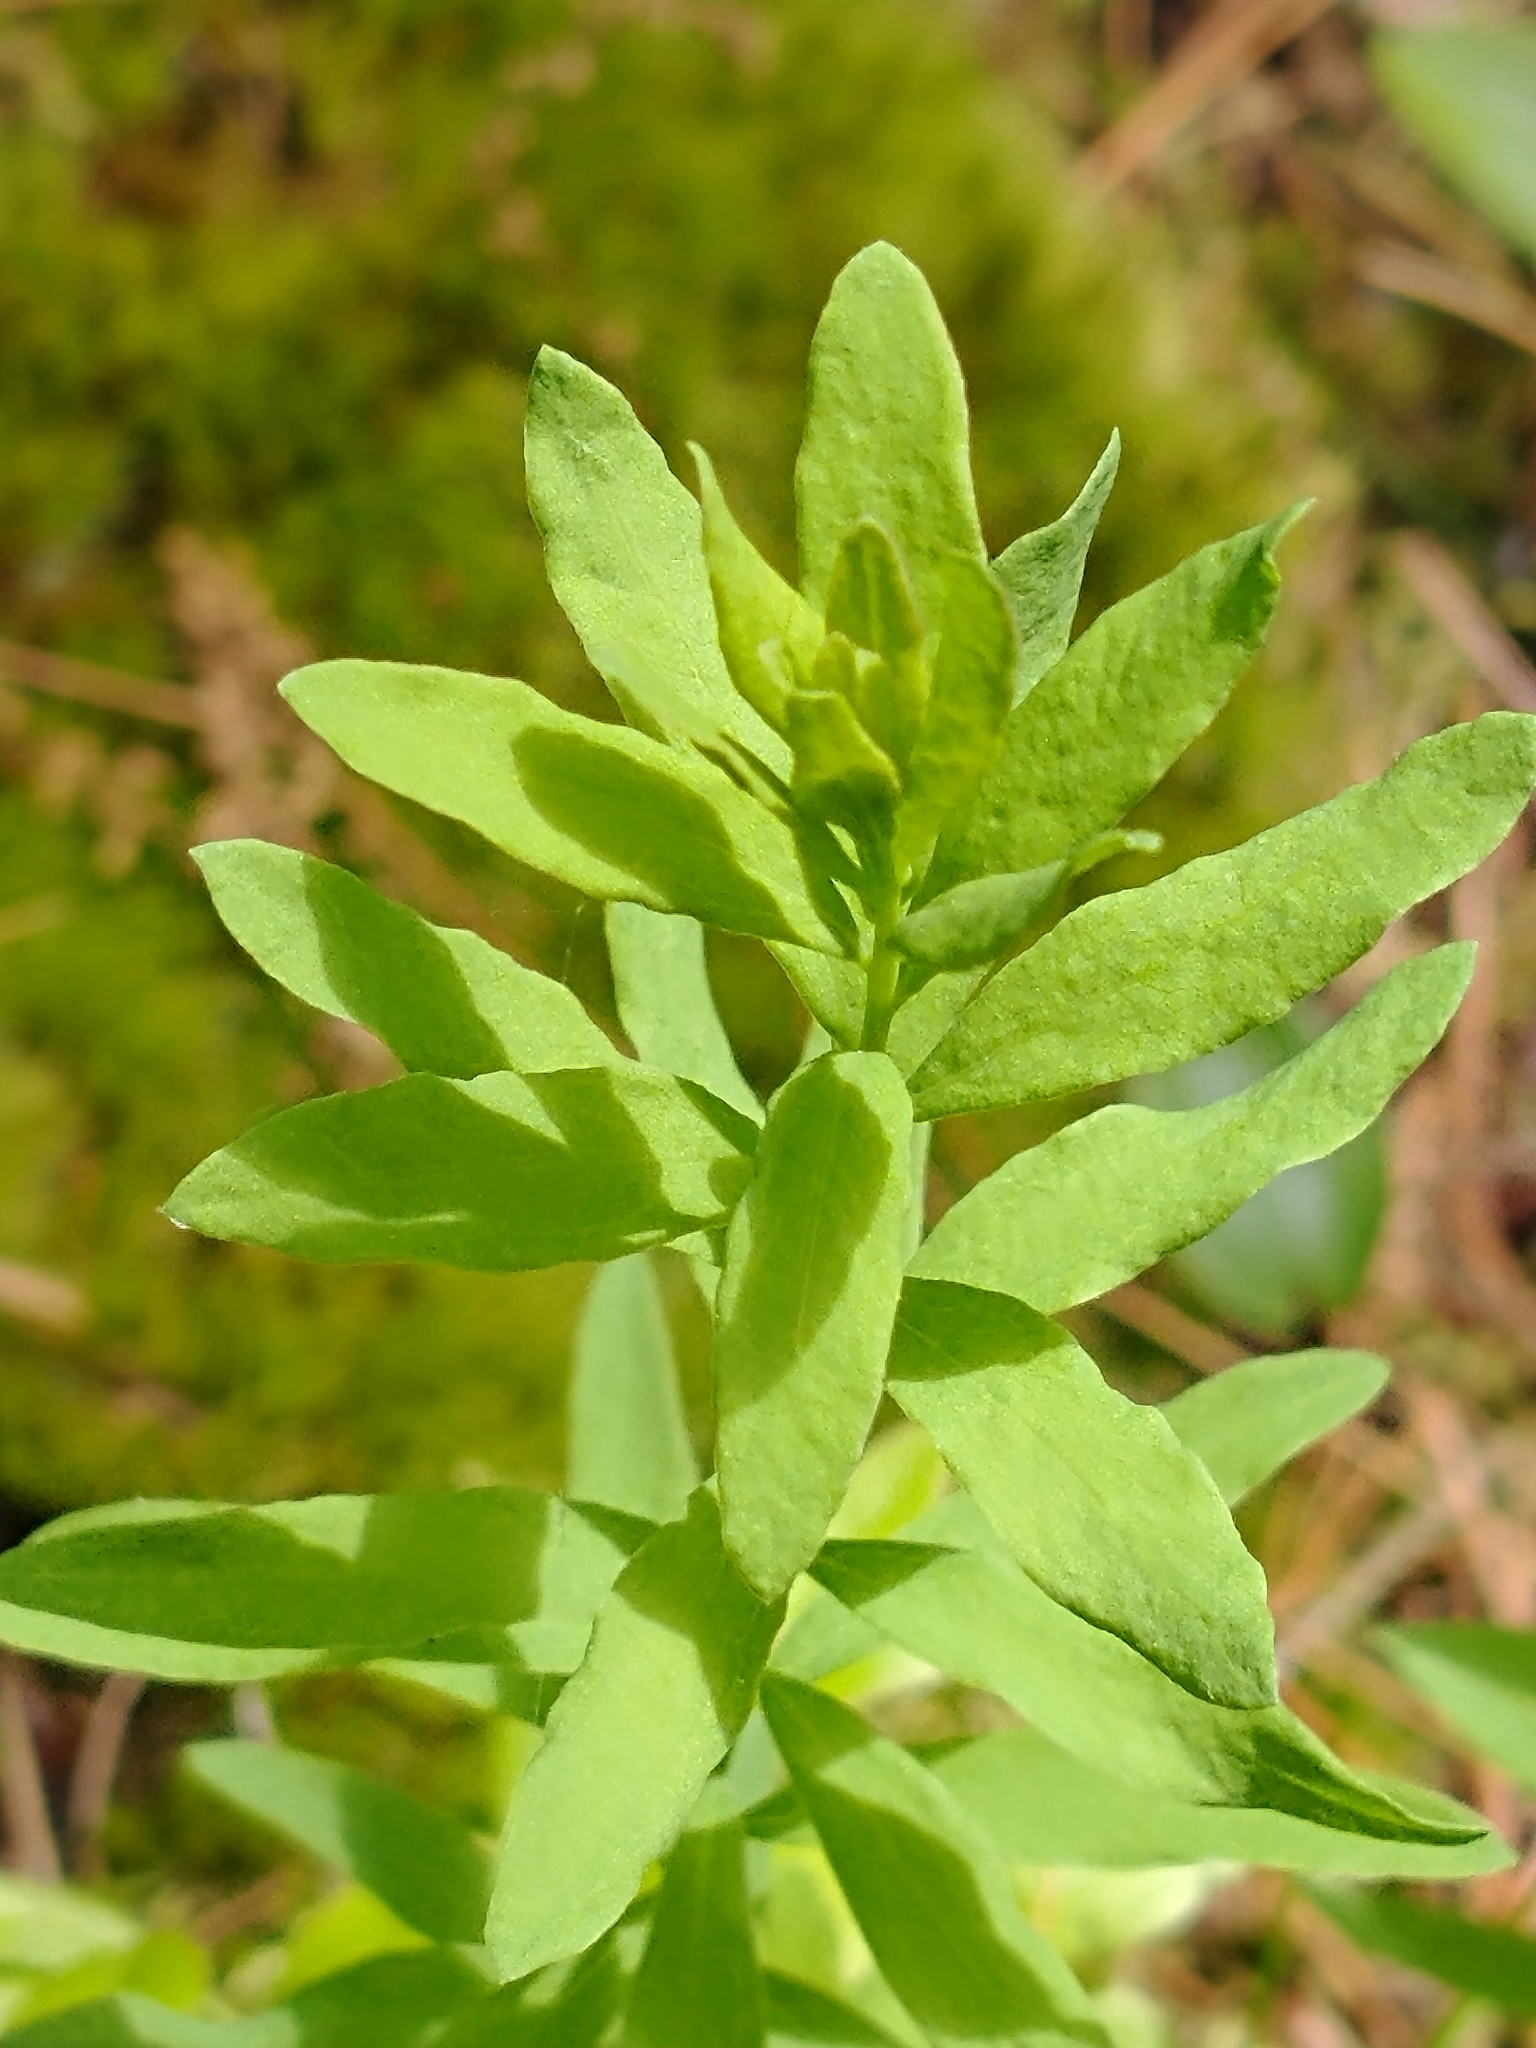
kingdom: Plantae
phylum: Tracheophyta
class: Magnoliopsida
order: Santalales
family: Comandraceae
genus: Comandra
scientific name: Comandra umbellata
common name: Bastard toadflax
